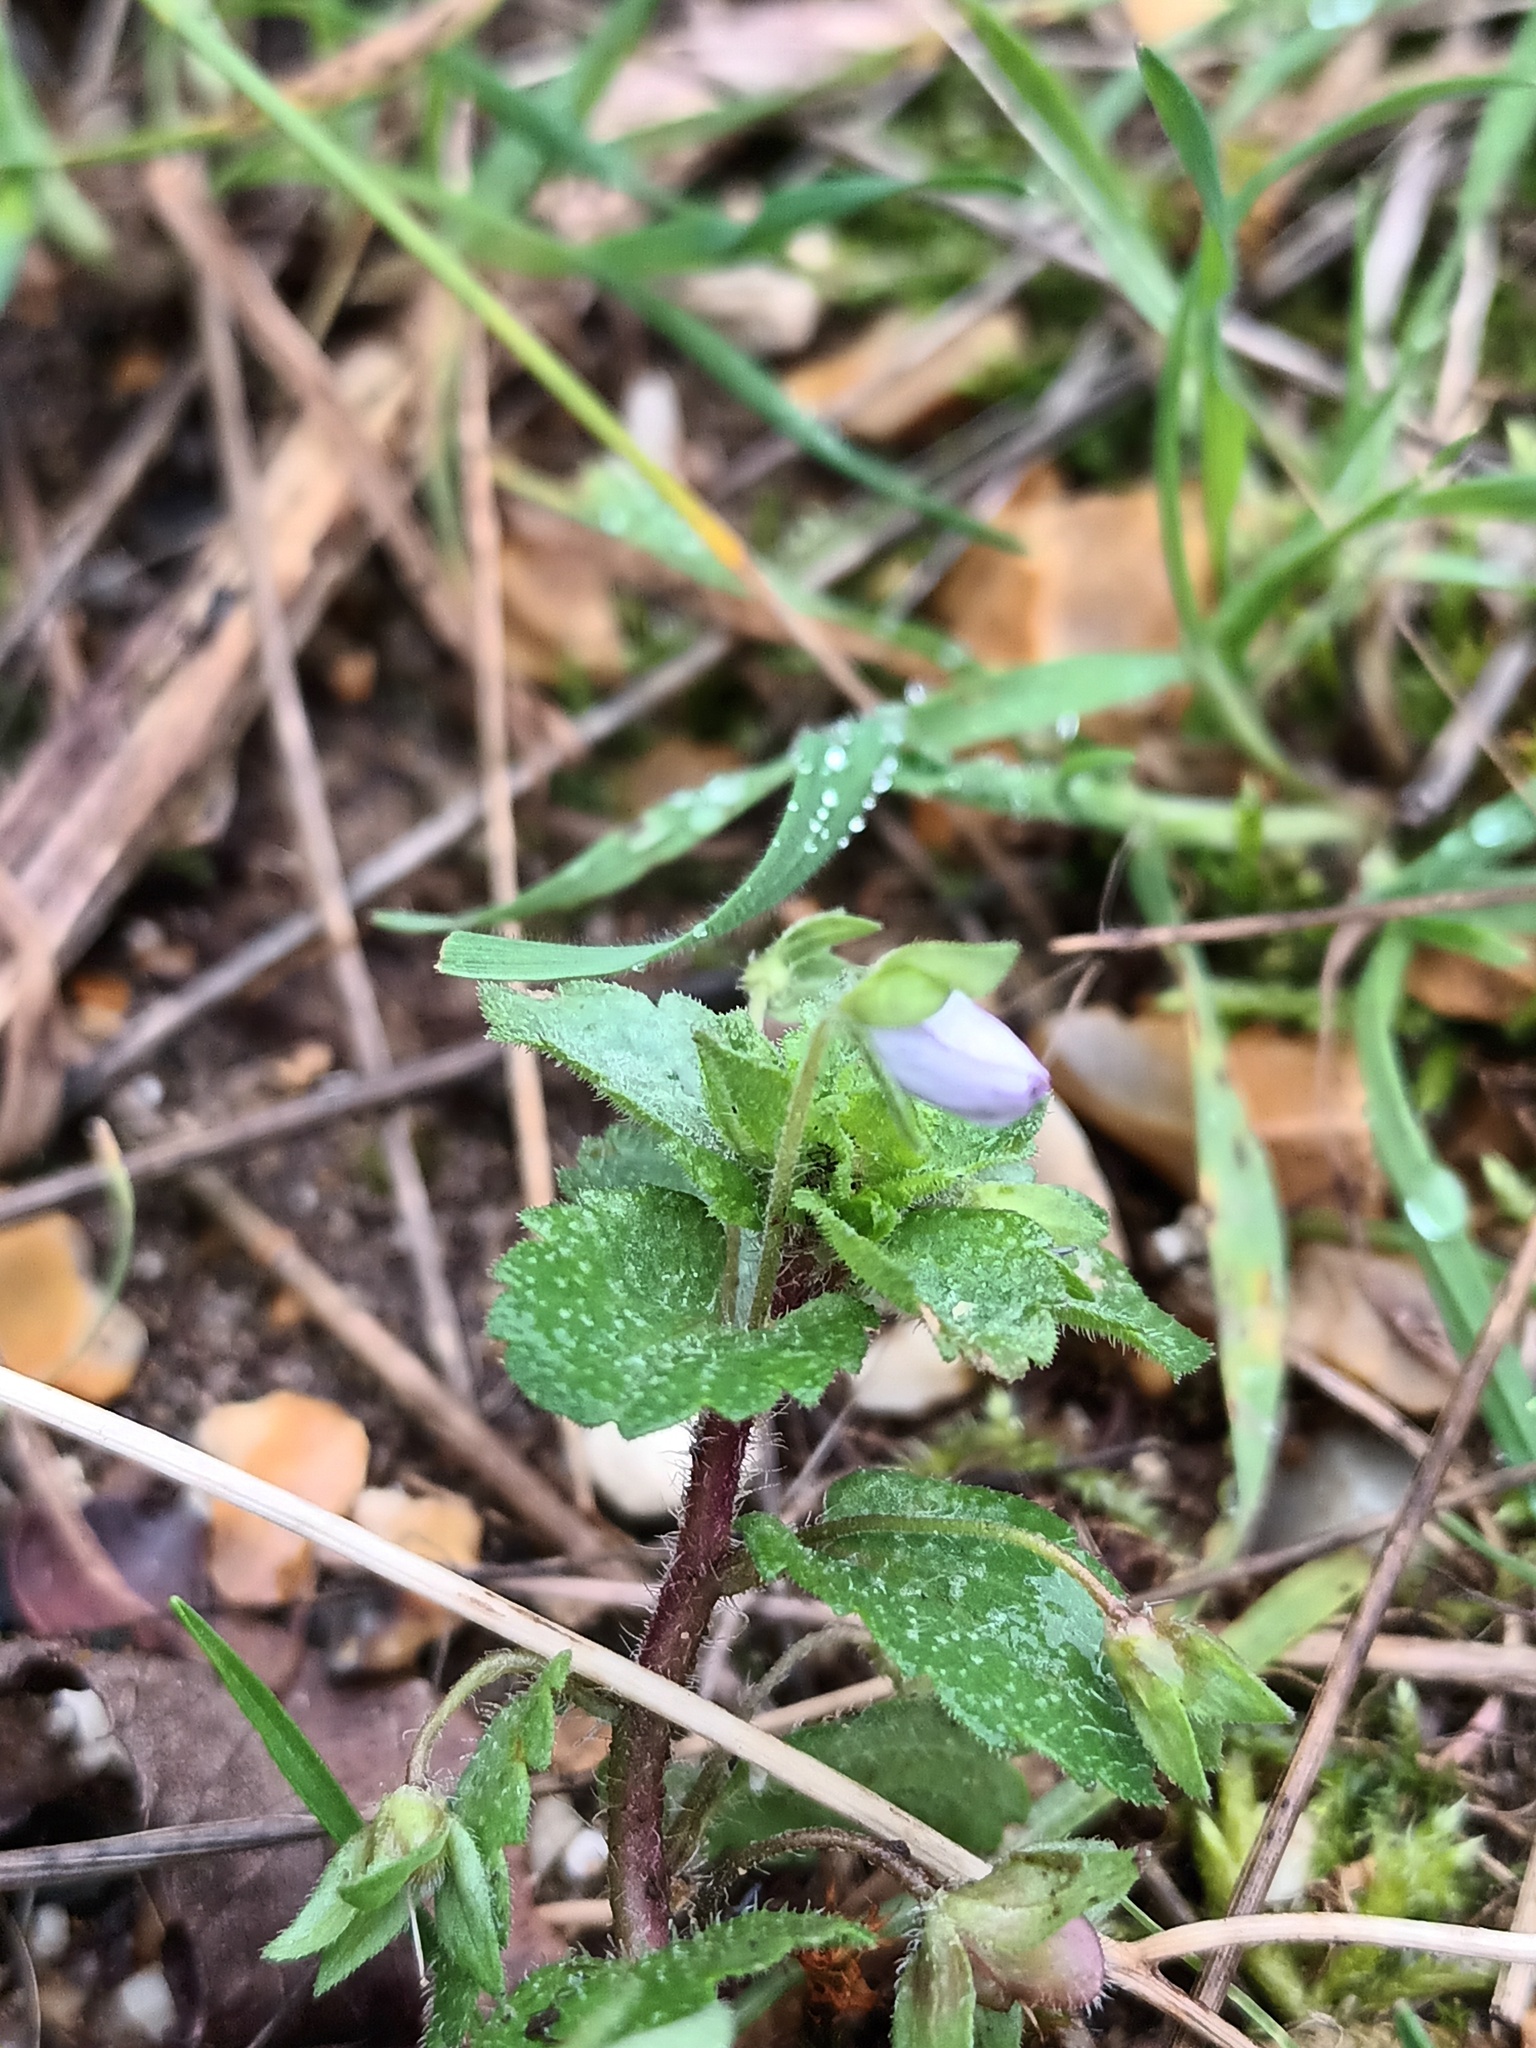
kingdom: Plantae
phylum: Tracheophyta
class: Magnoliopsida
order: Lamiales
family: Plantaginaceae
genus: Veronica
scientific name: Veronica persica
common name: Common field-speedwell
